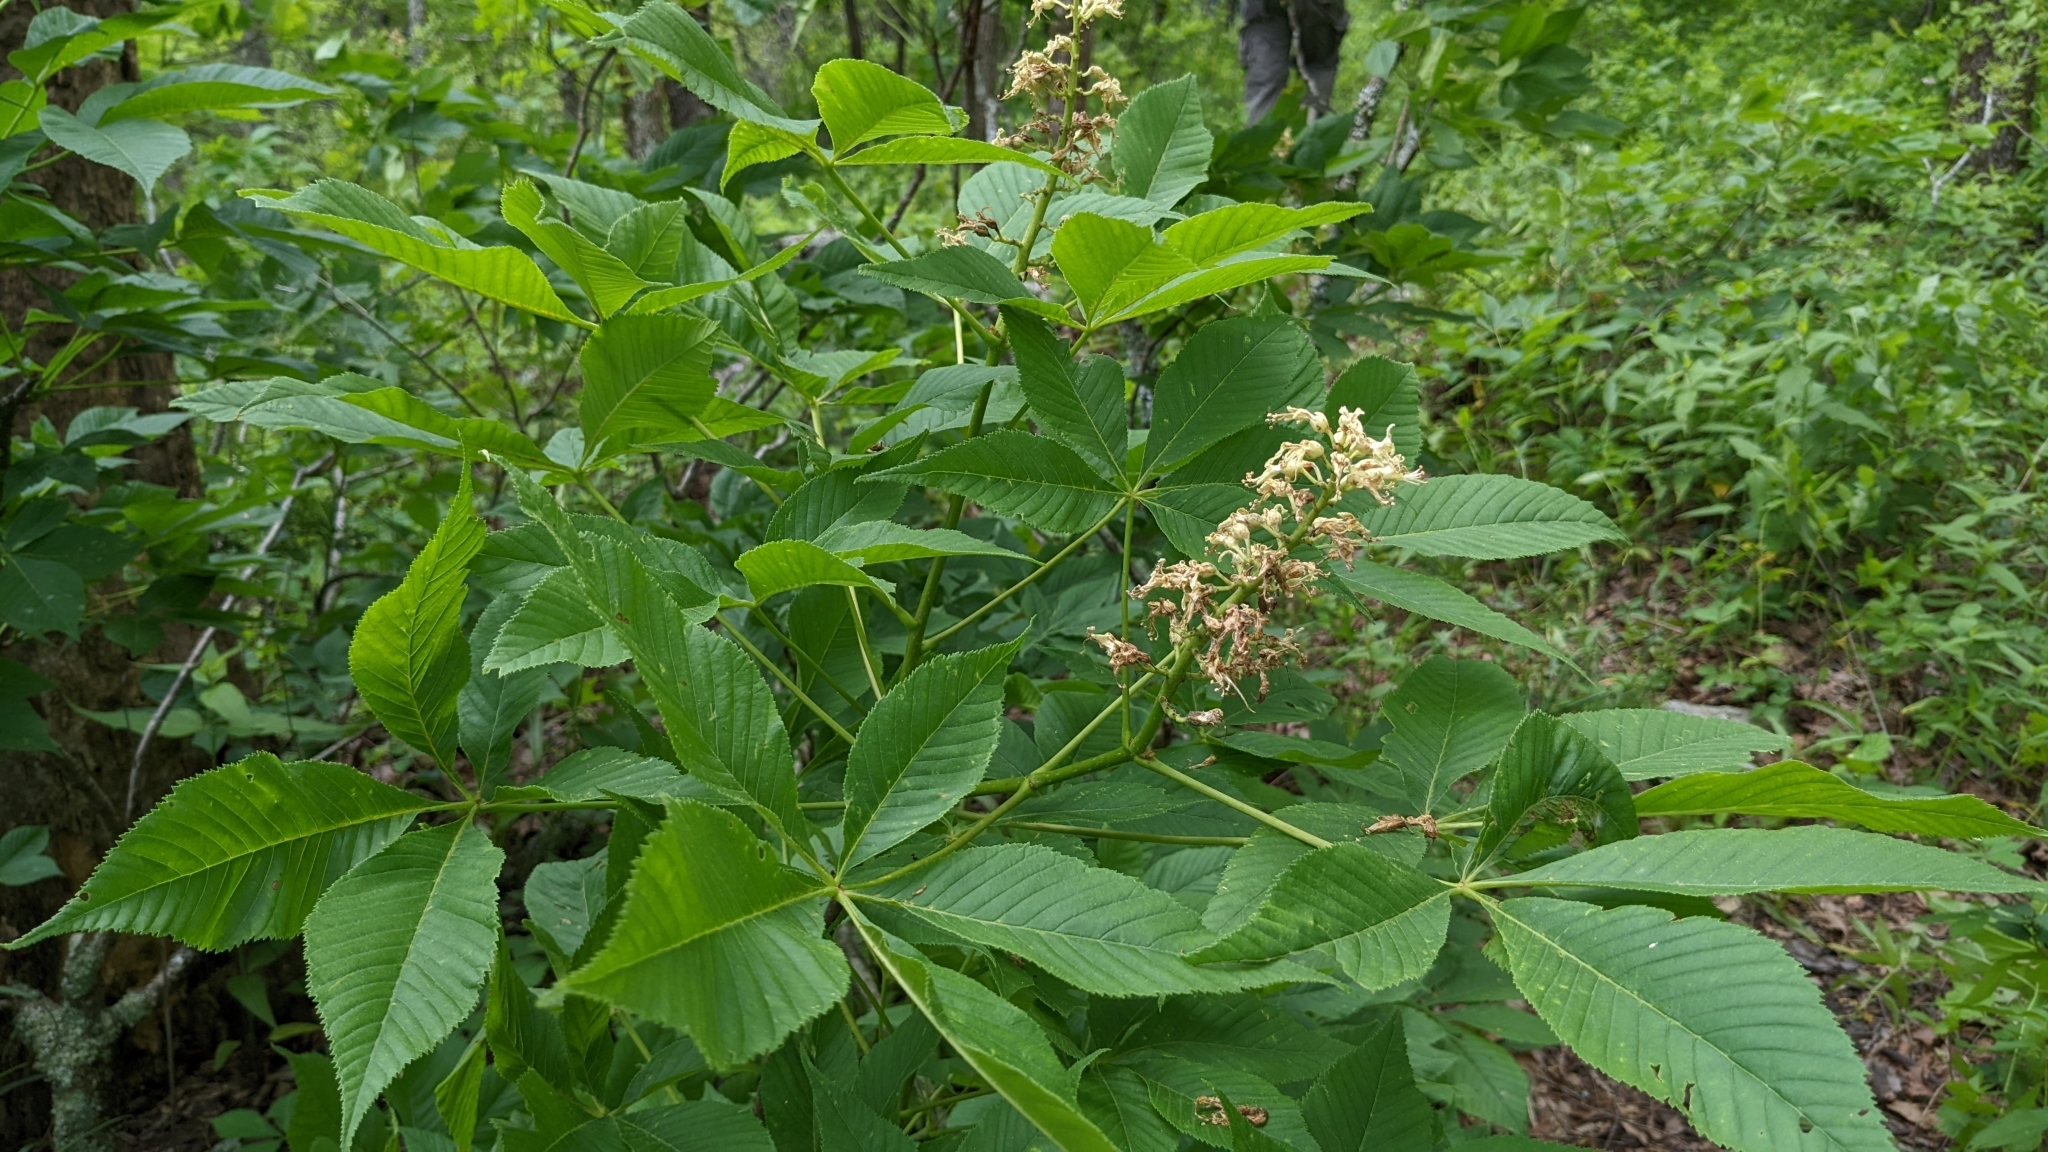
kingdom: Plantae
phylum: Tracheophyta
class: Magnoliopsida
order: Sapindales
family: Sapindaceae
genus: Aesculus
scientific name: Aesculus glabra
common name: Ohio buckeye
